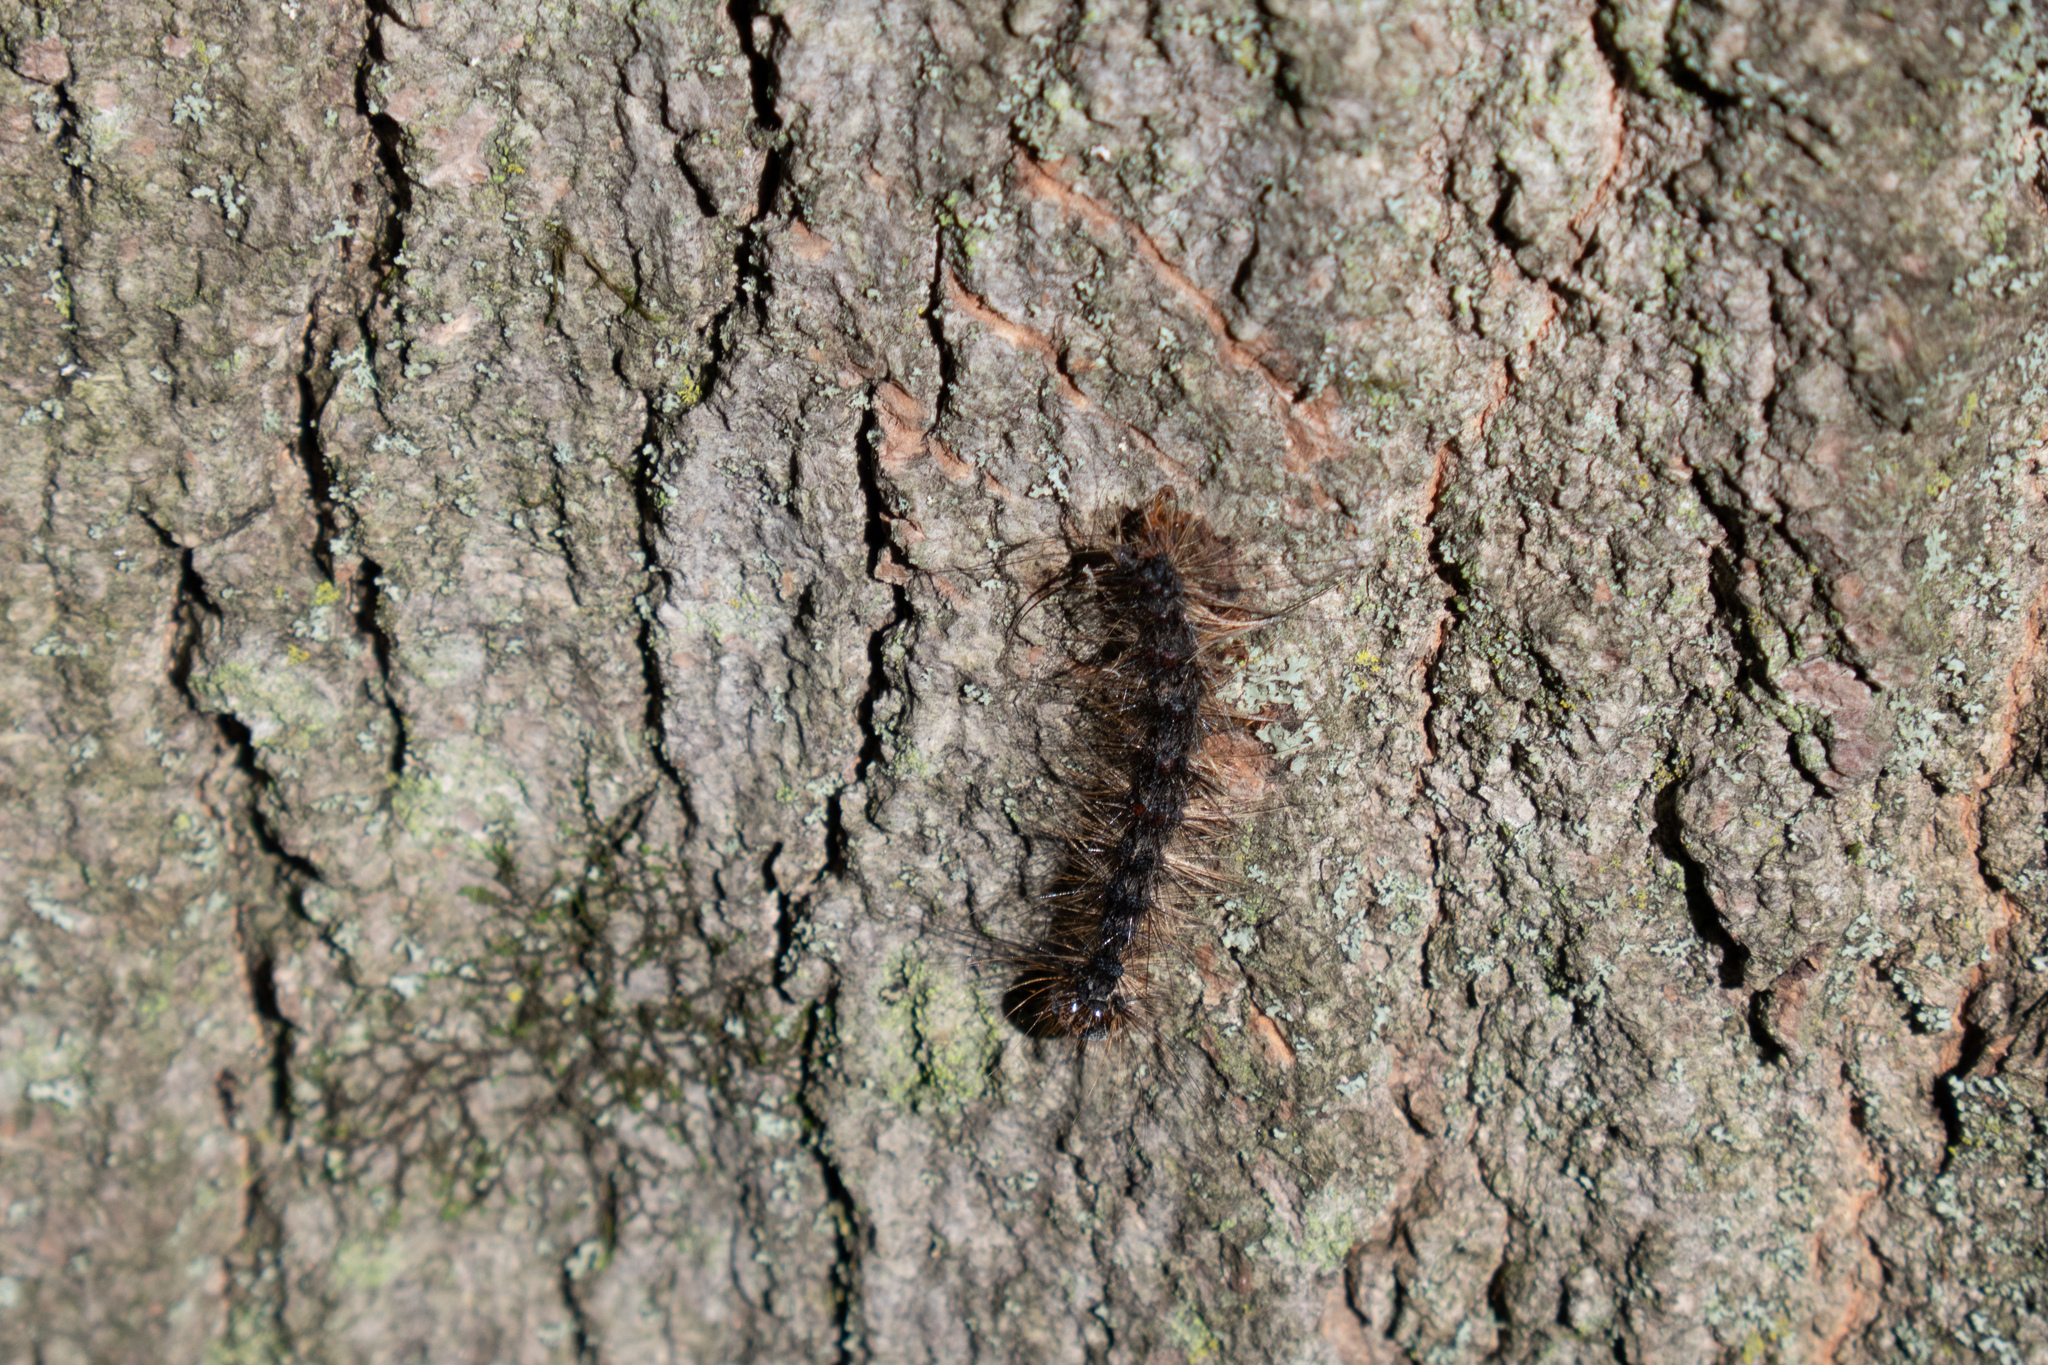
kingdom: Animalia
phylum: Arthropoda
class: Insecta
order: Lepidoptera
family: Erebidae
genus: Lymantria
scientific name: Lymantria dispar
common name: Gypsy moth
